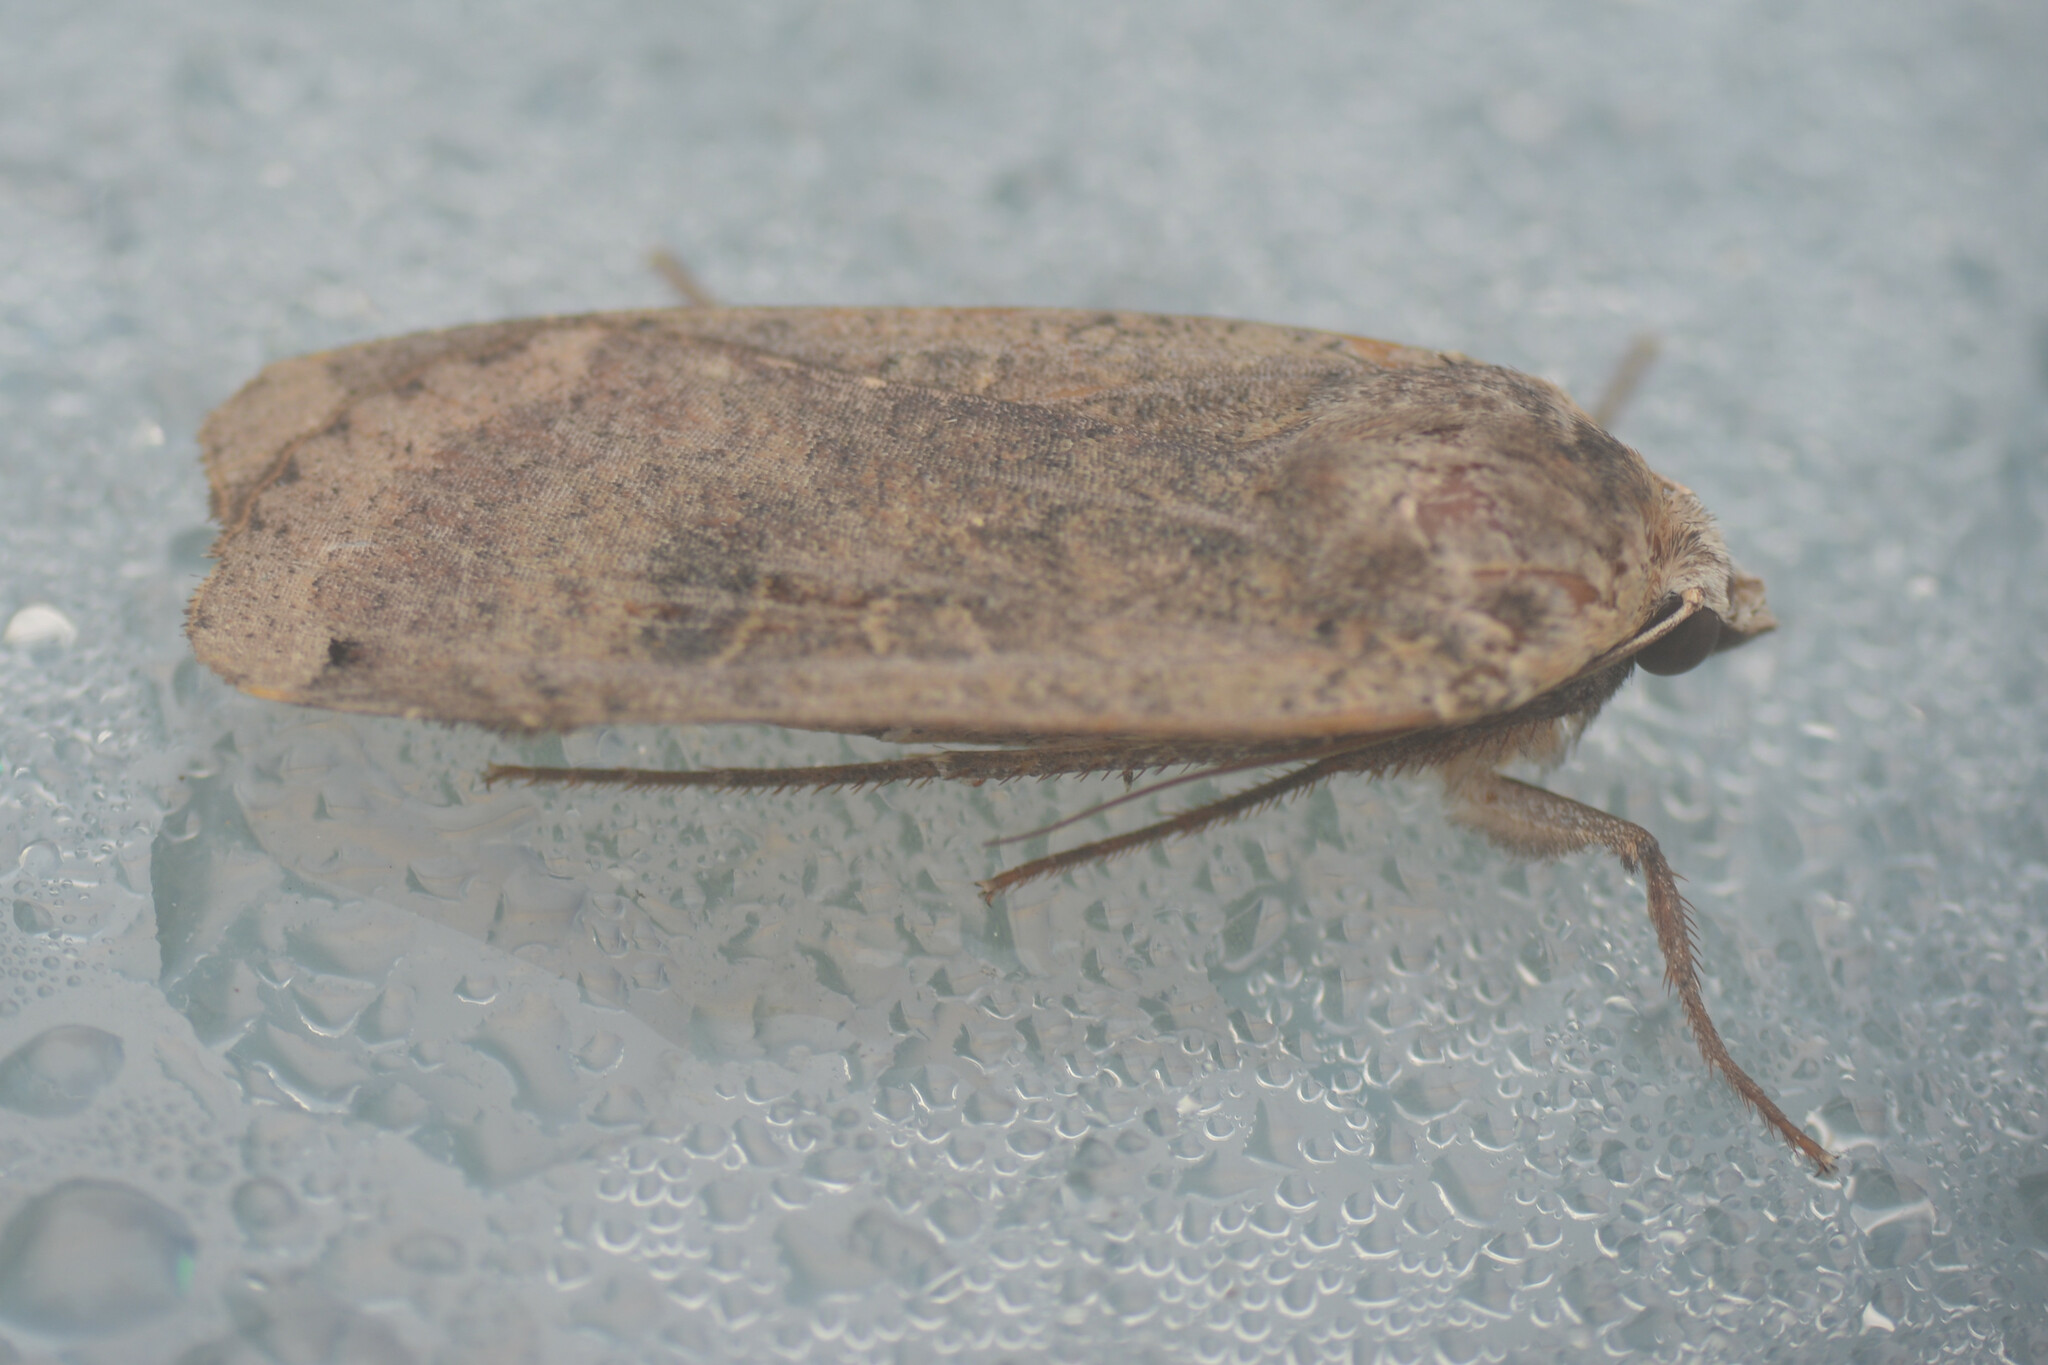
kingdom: Animalia
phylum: Arthropoda
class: Insecta
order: Lepidoptera
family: Noctuidae
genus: Noctua
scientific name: Noctua pronuba
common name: Large yellow underwing
